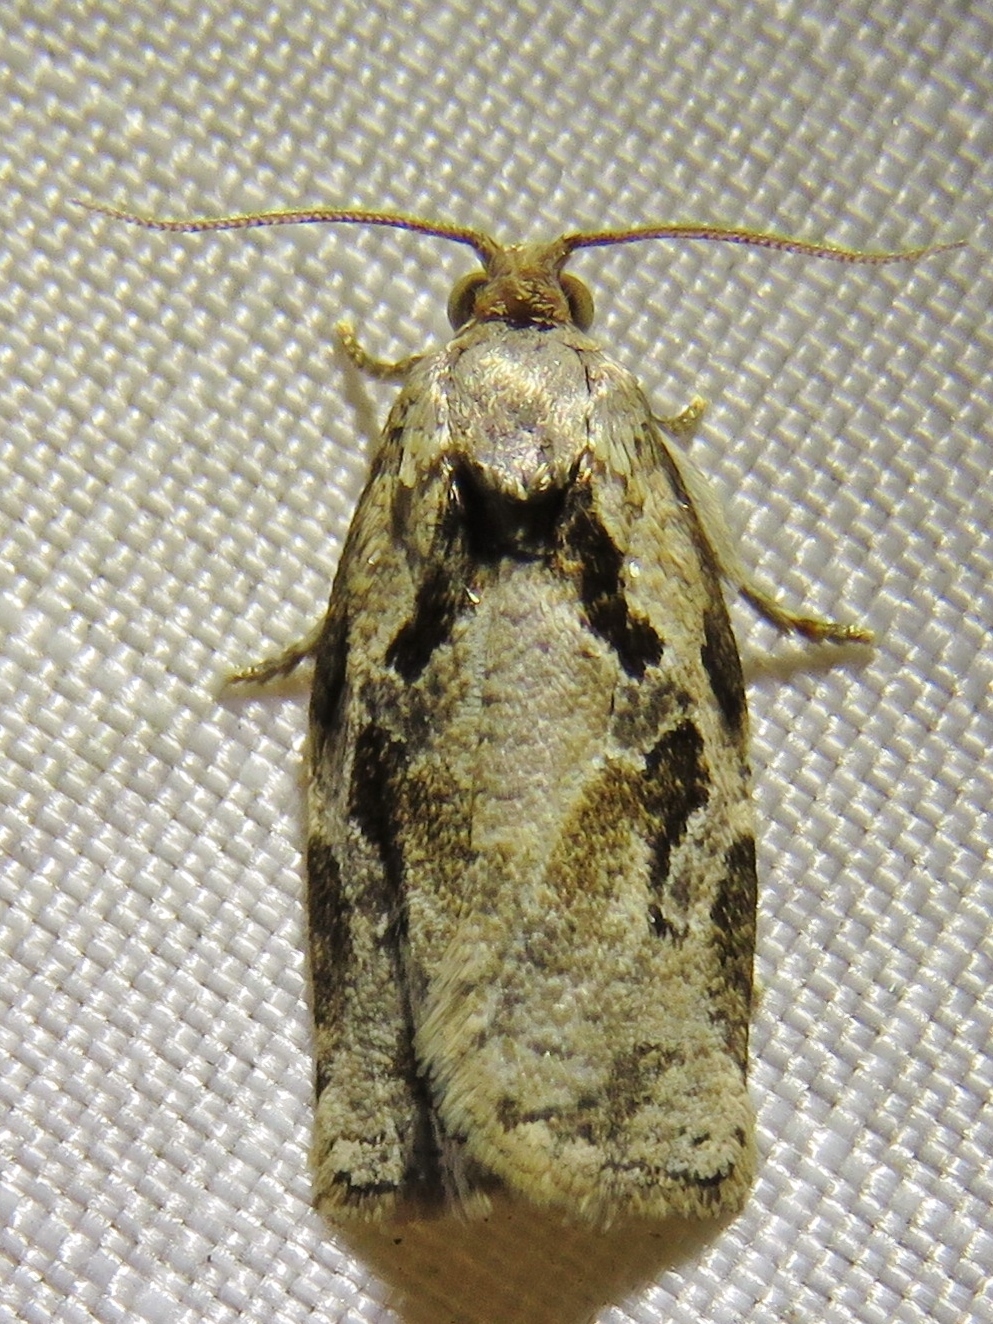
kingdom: Animalia
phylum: Arthropoda
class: Insecta
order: Lepidoptera
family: Tortricidae
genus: Archips
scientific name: Archips grisea
